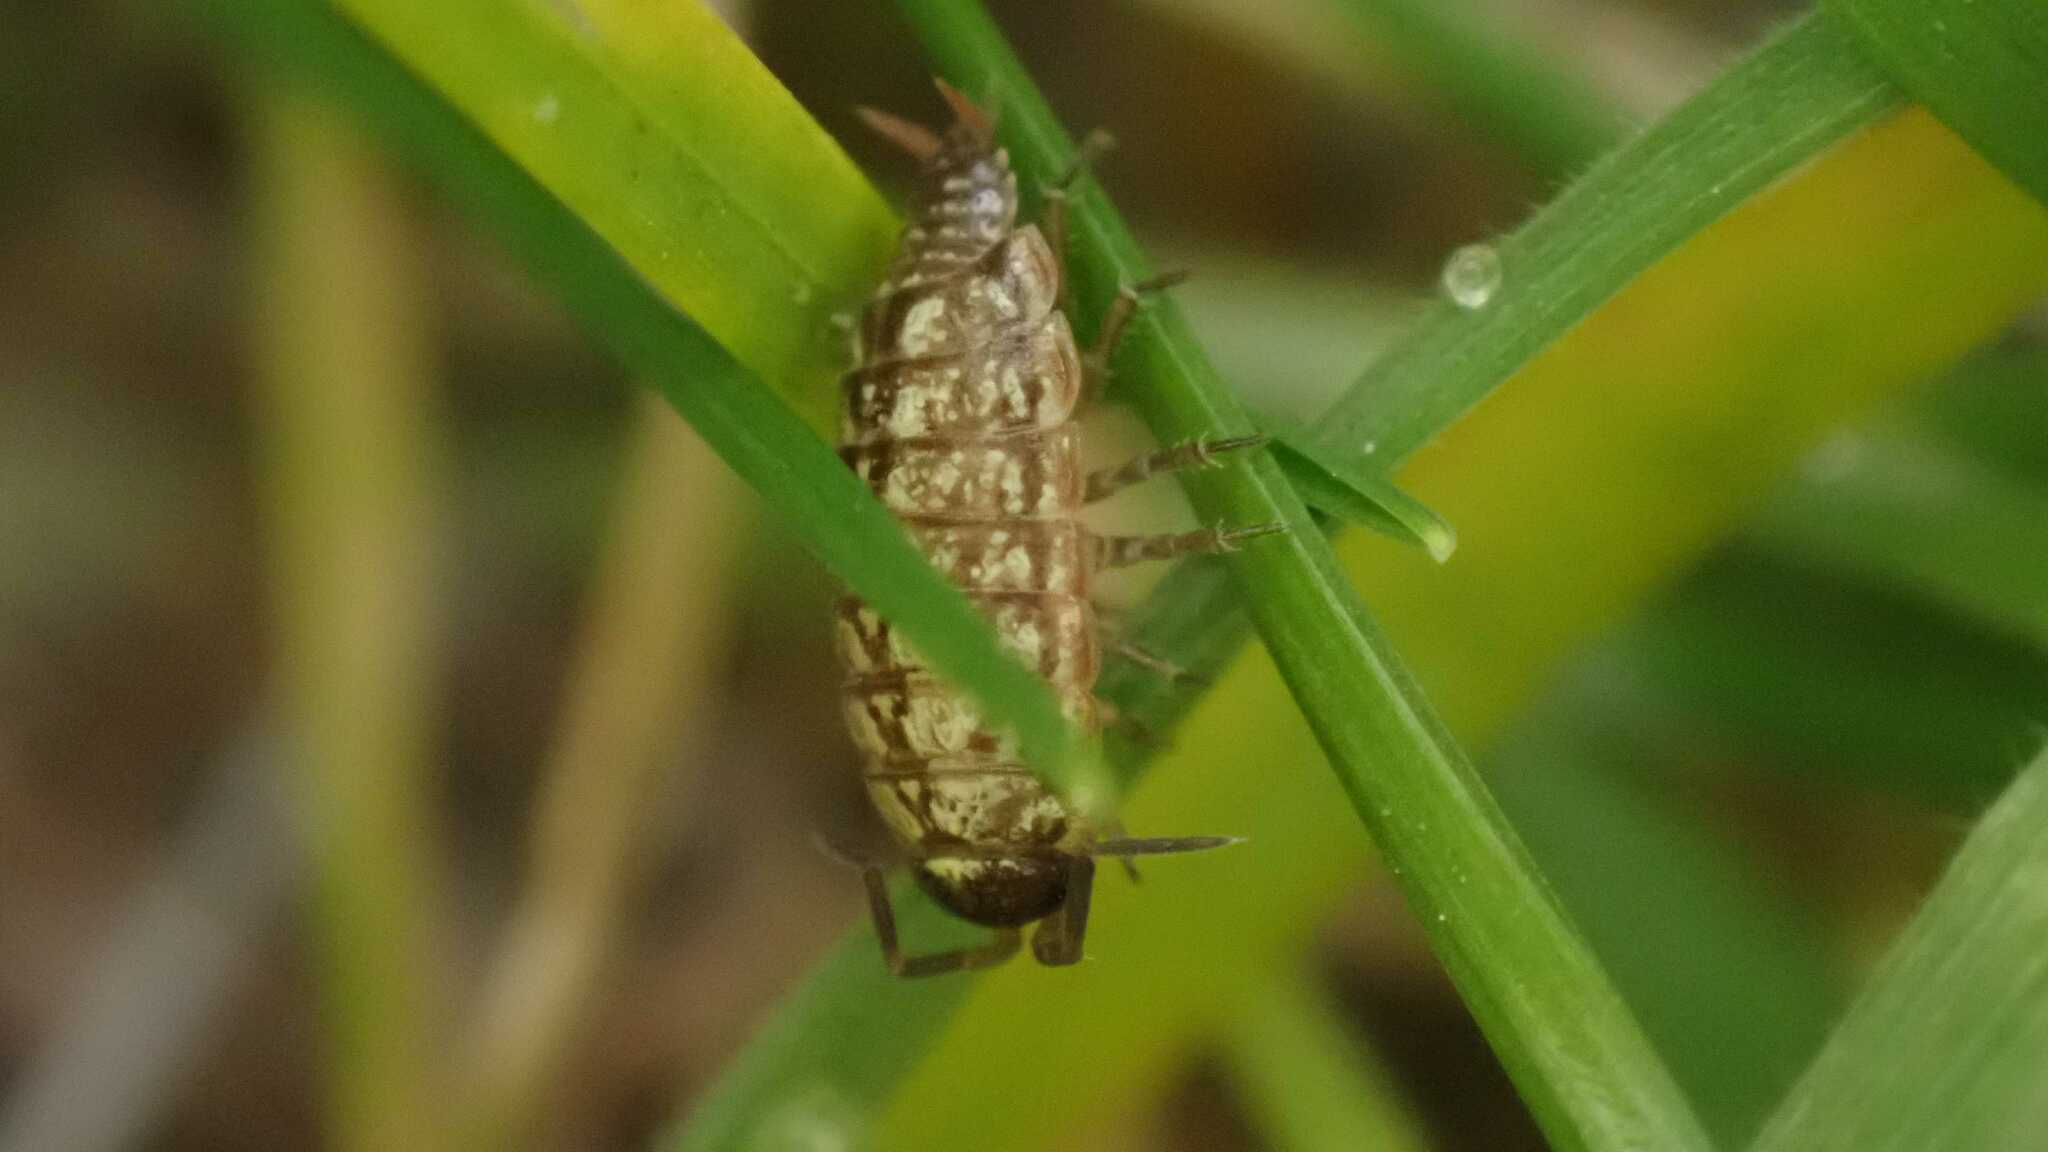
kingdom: Animalia
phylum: Arthropoda
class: Malacostraca
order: Isopoda
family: Philosciidae
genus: Philoscia
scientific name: Philoscia muscorum
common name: Common striped woodlouse
